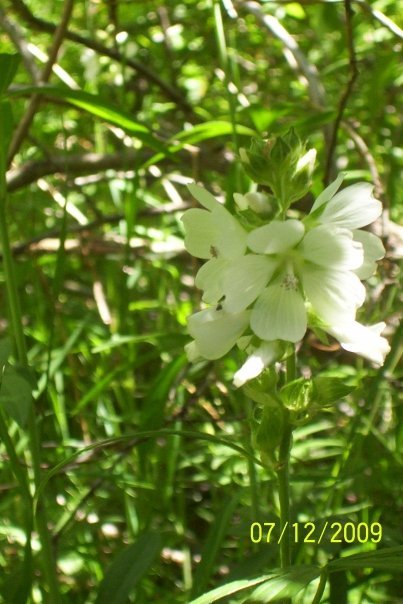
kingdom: Plantae
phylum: Tracheophyta
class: Magnoliopsida
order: Malvales
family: Malvaceae
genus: Sidalcea
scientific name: Sidalcea candida
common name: Prairie-mallow
